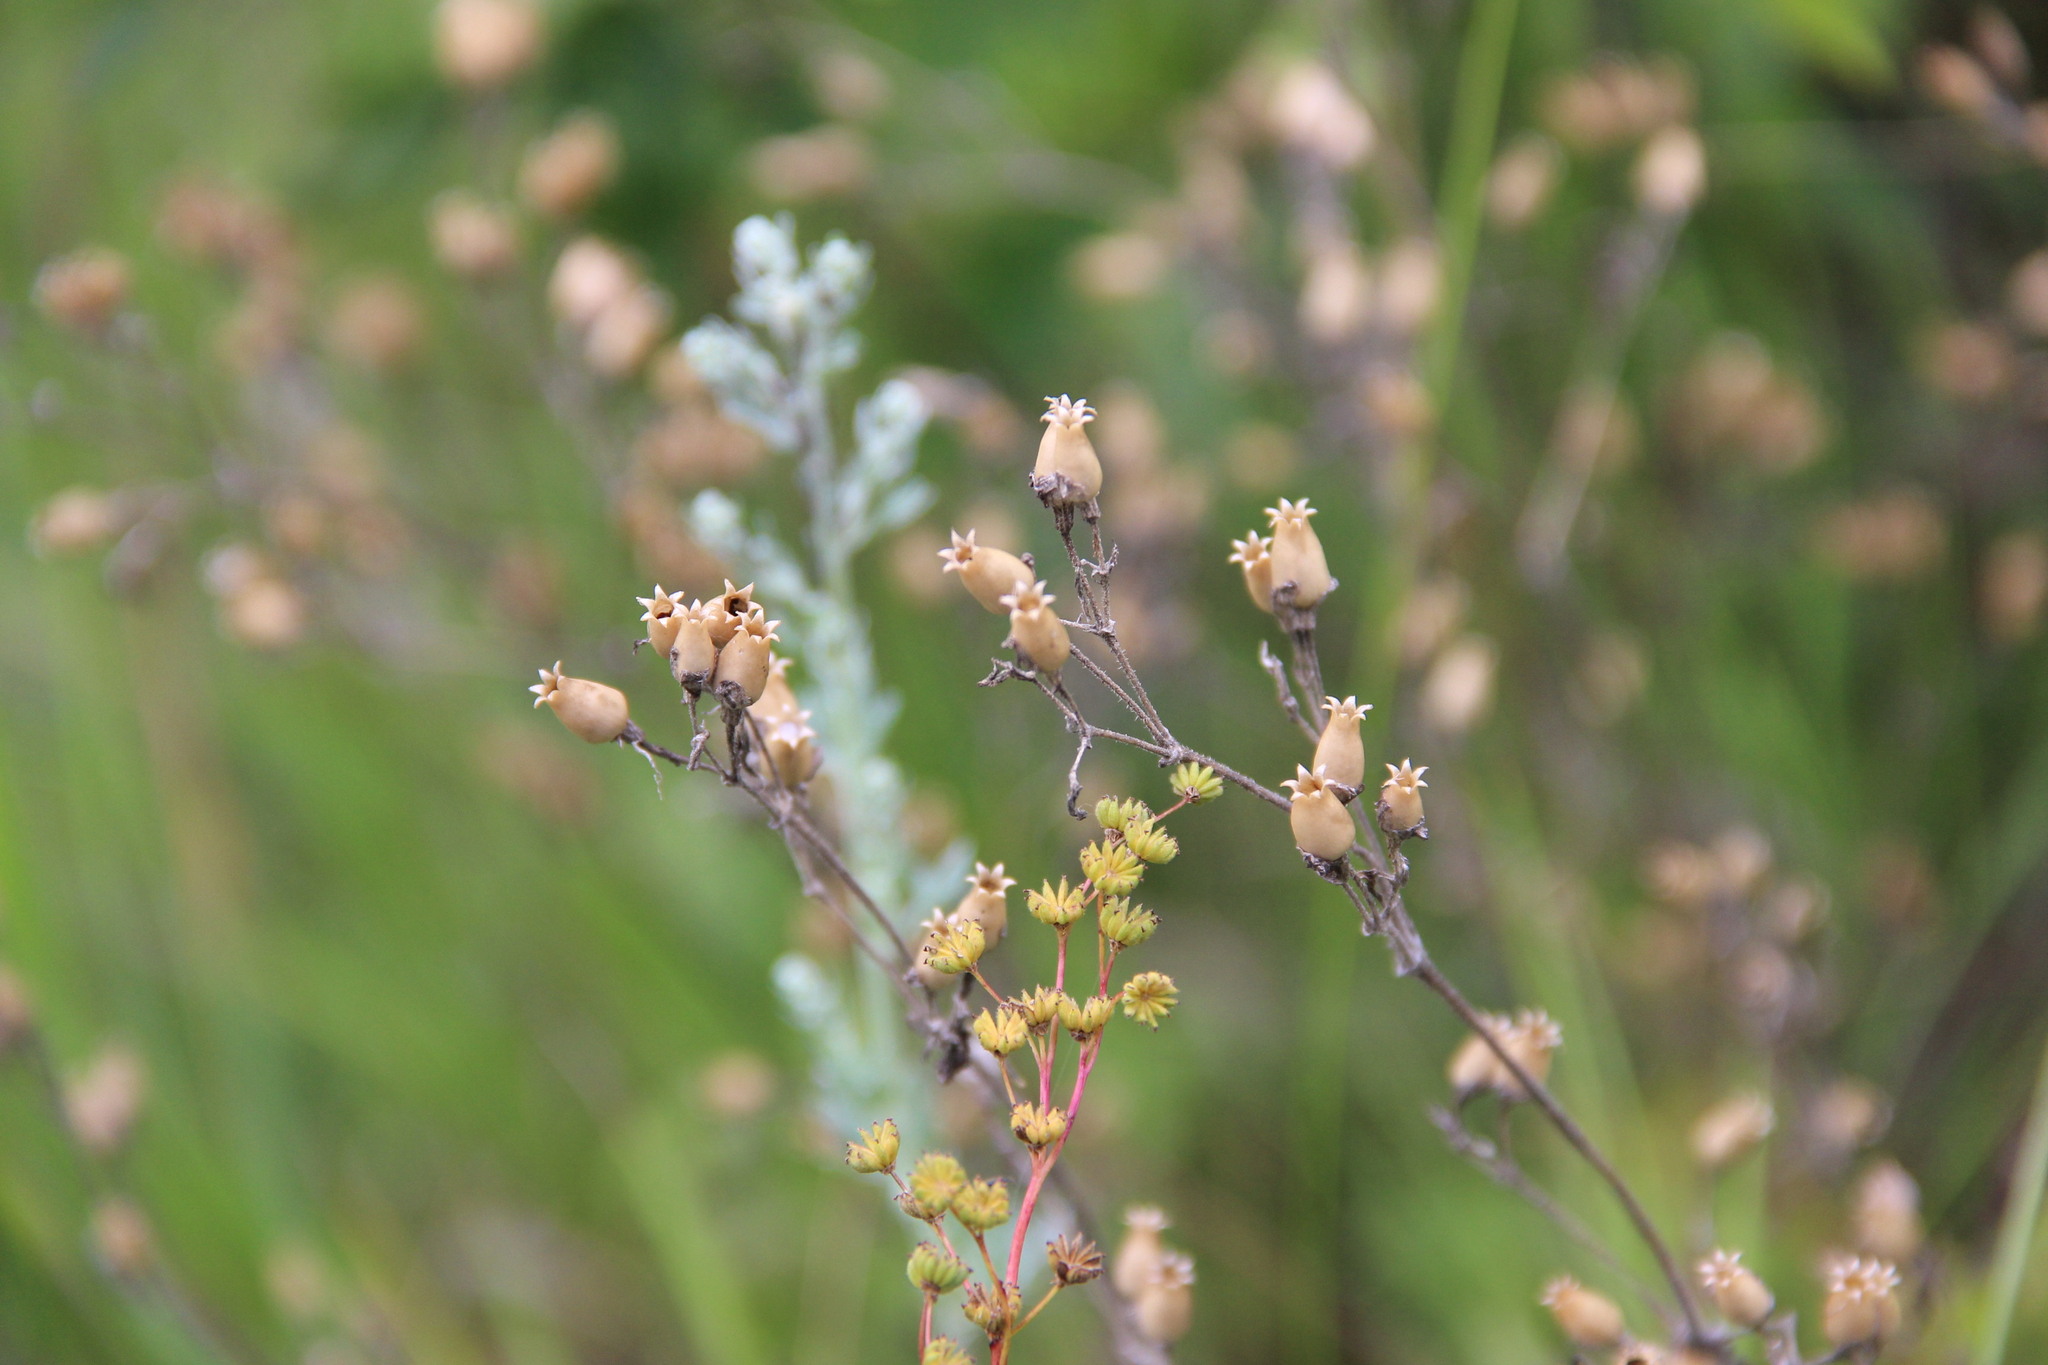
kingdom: Plantae
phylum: Tracheophyta
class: Magnoliopsida
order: Caryophyllales
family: Caryophyllaceae
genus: Silene
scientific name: Silene nutans
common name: Nottingham catchfly
